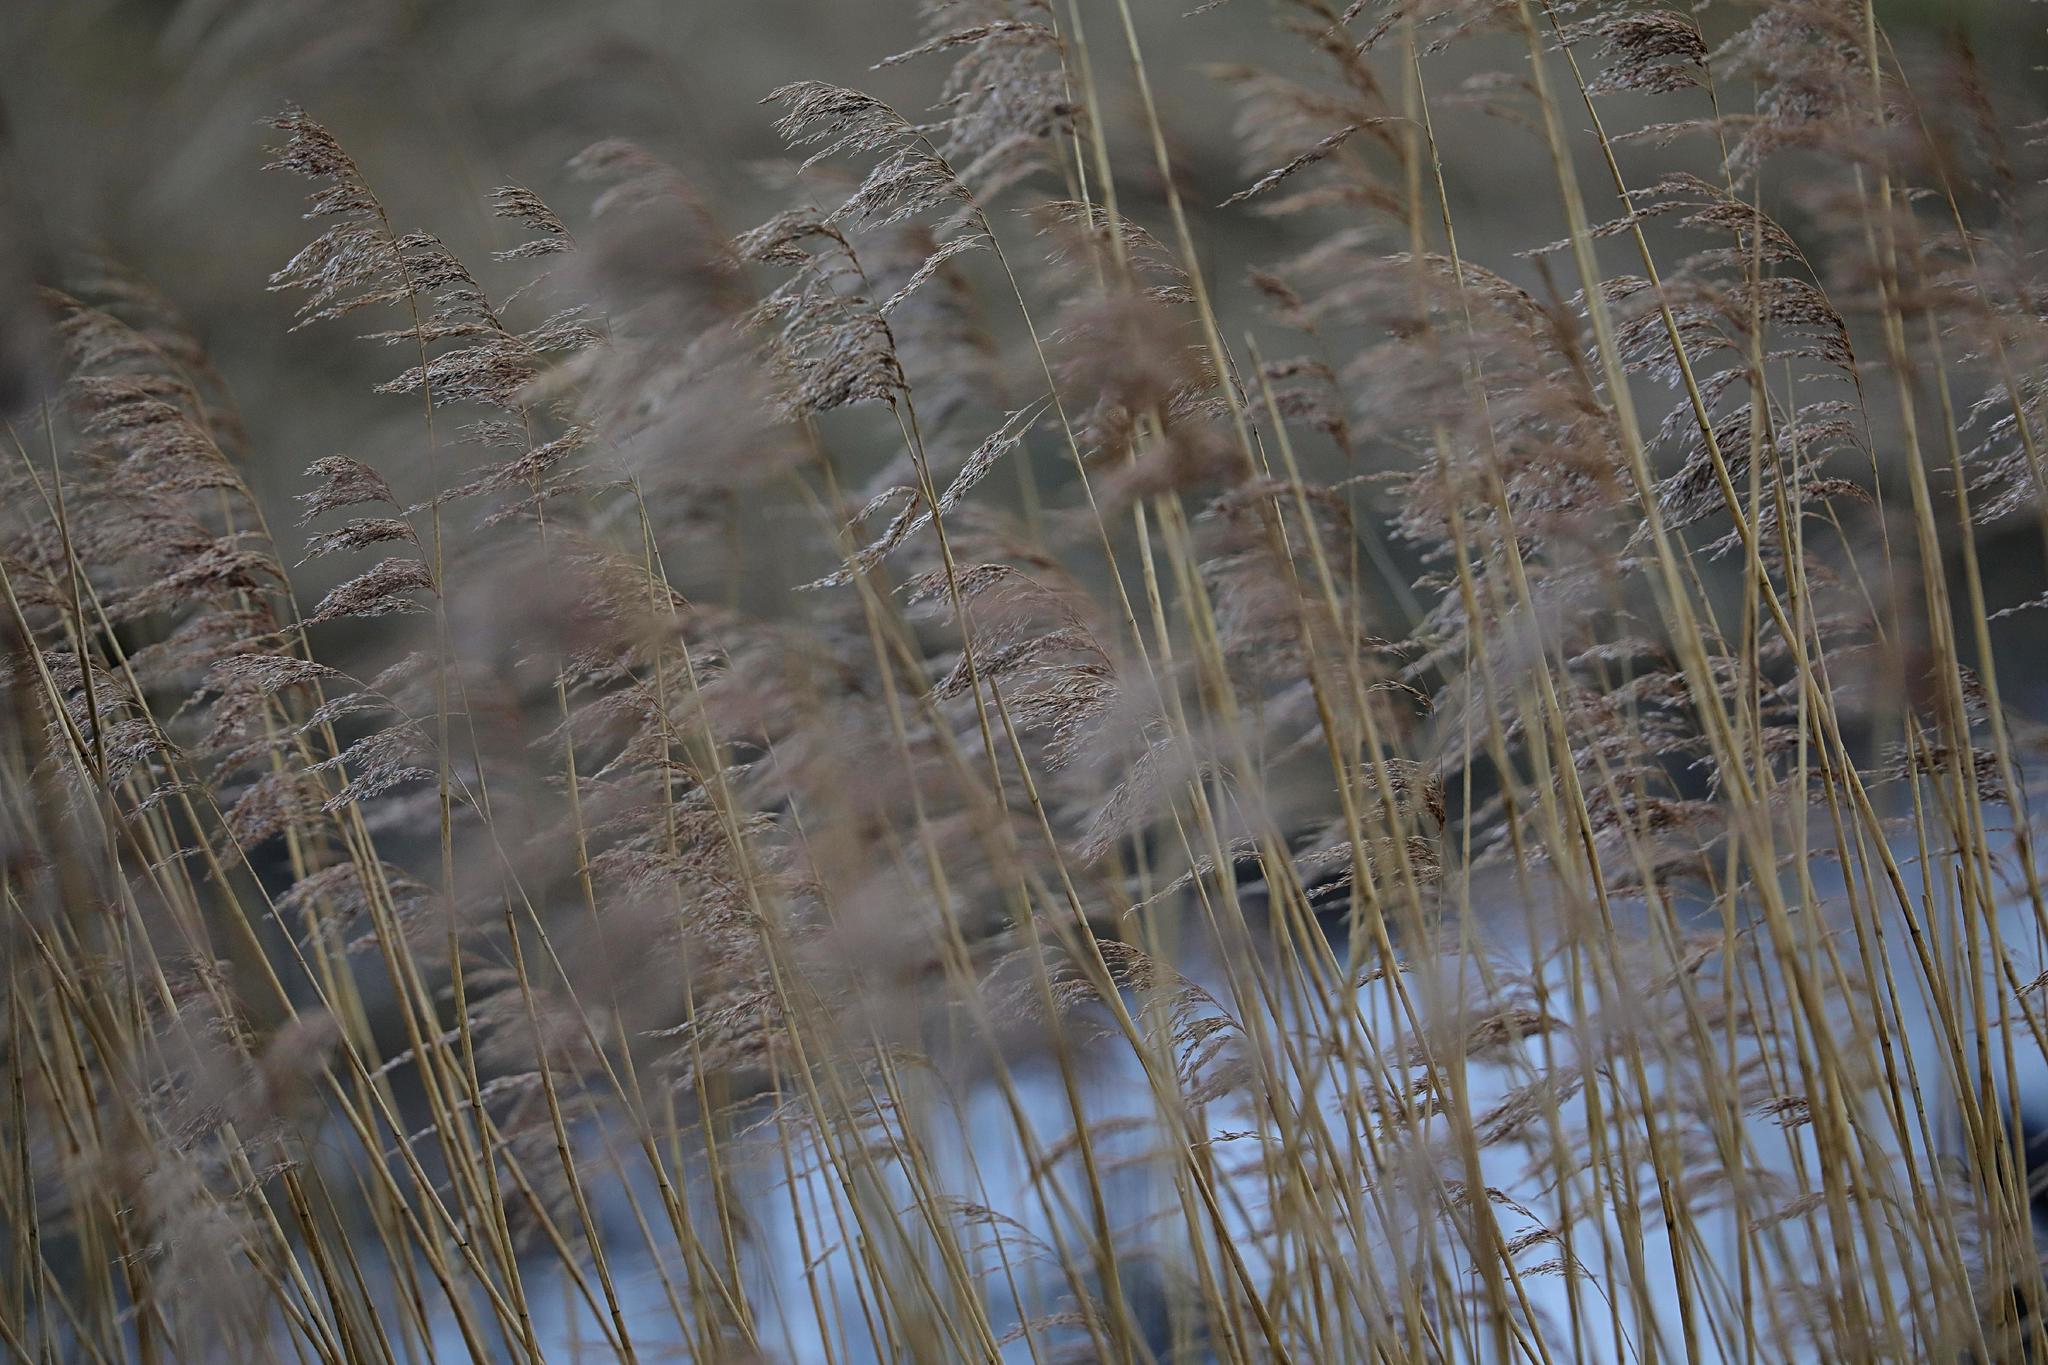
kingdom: Plantae
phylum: Tracheophyta
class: Liliopsida
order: Poales
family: Poaceae
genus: Phragmites
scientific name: Phragmites australis
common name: Common reed
